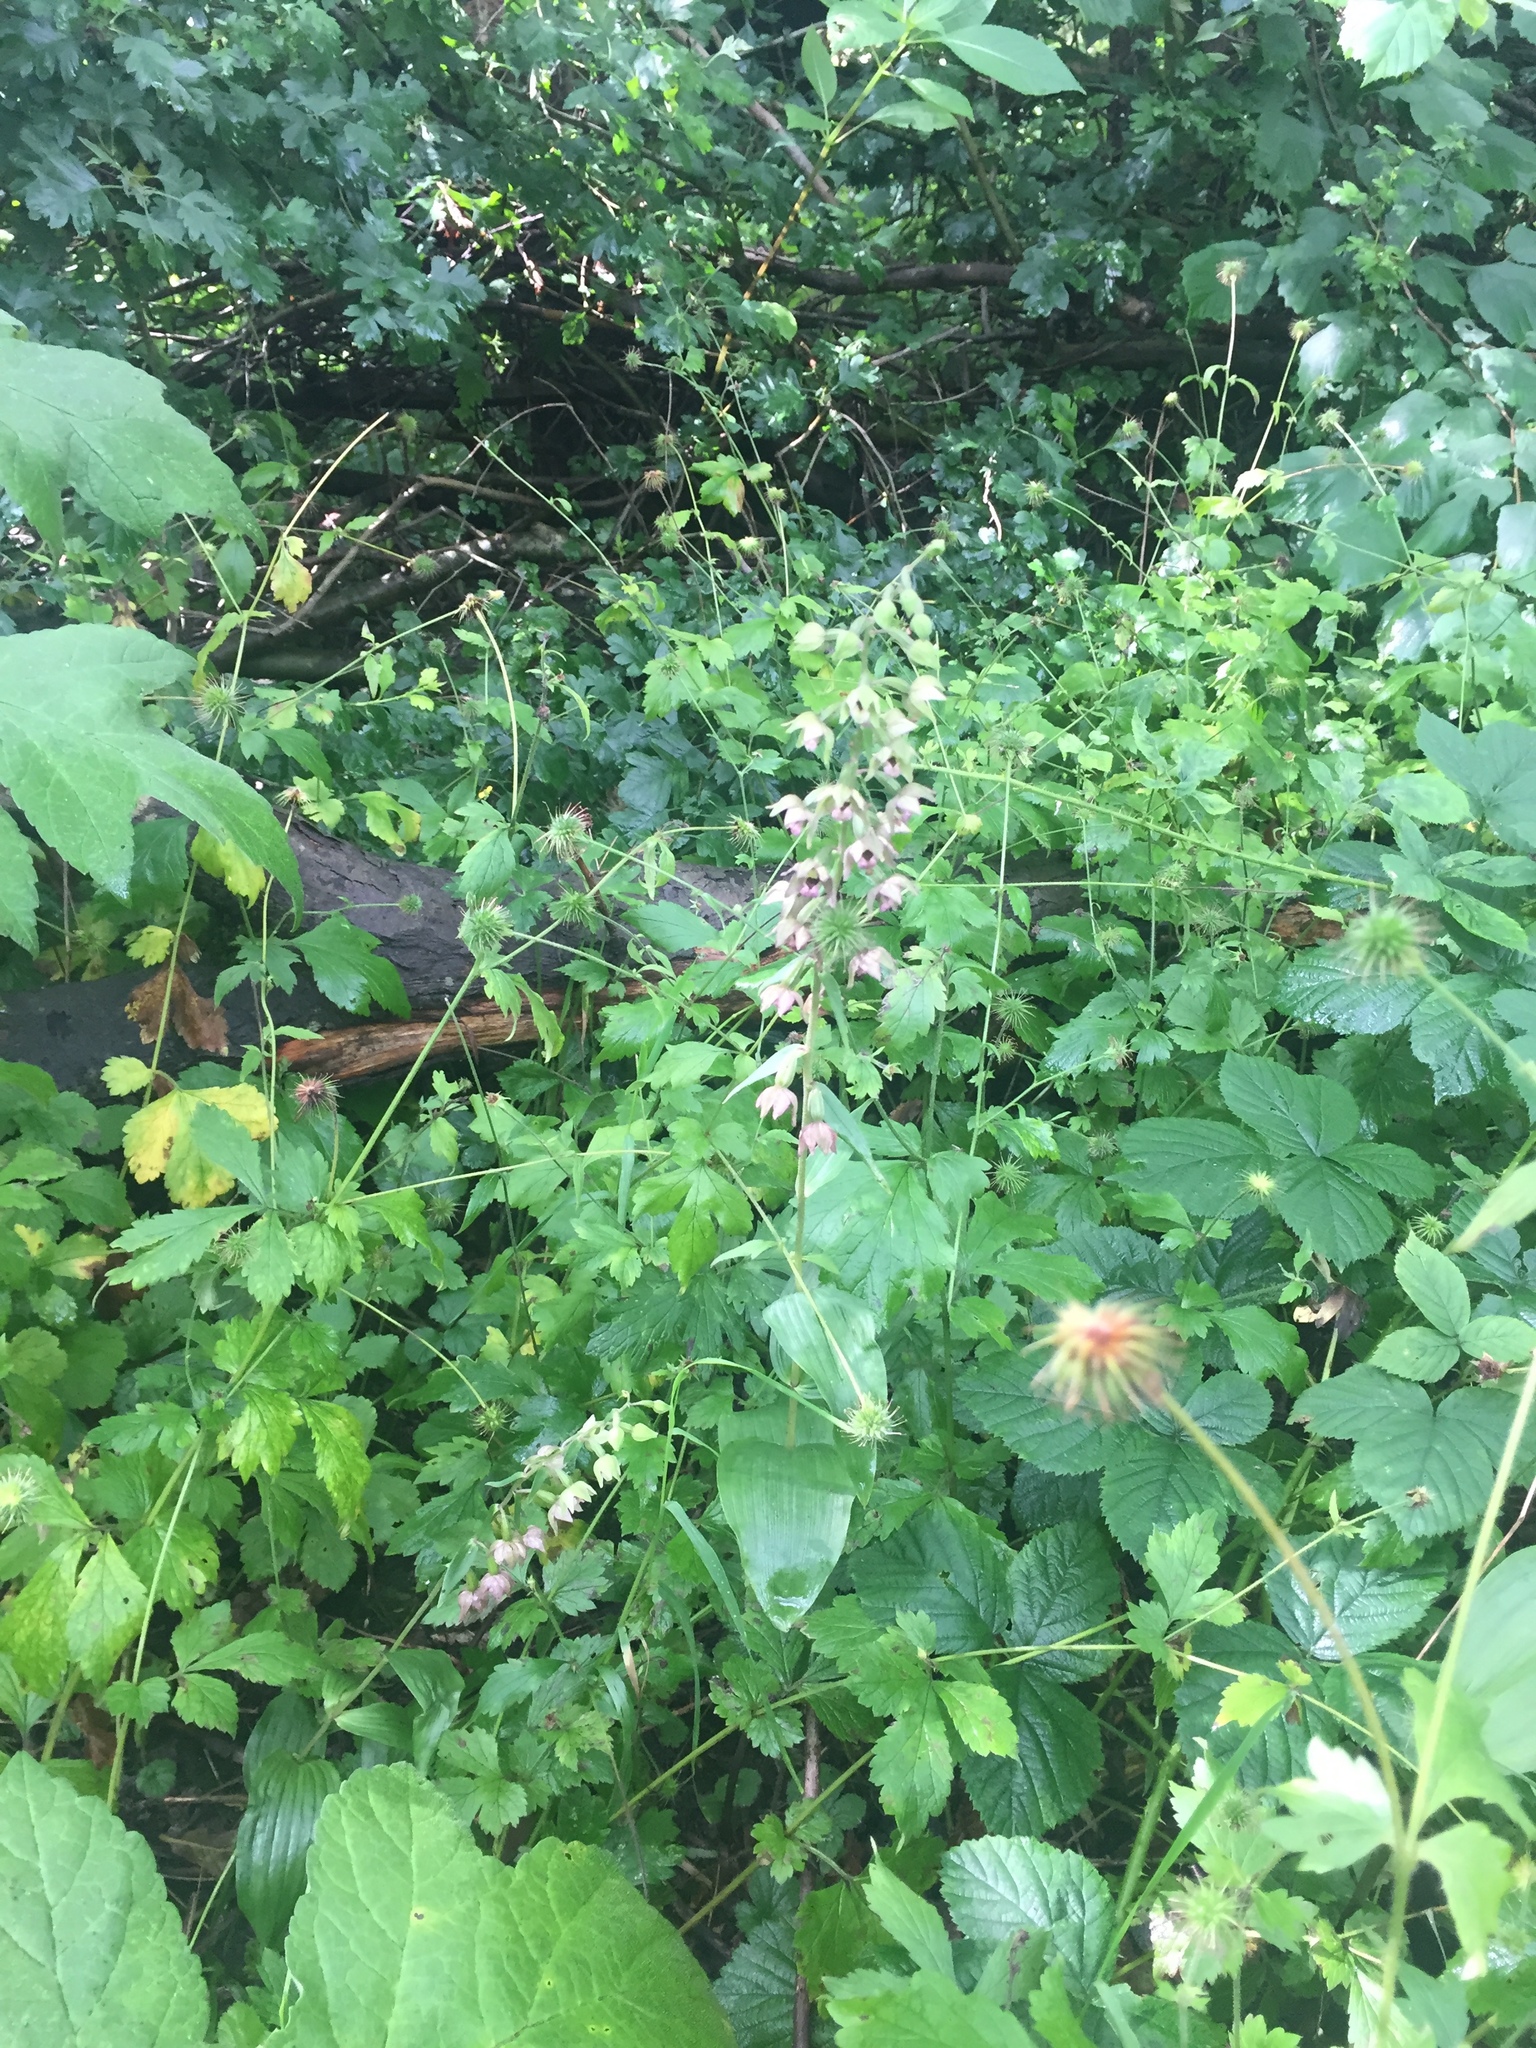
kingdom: Plantae
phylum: Tracheophyta
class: Liliopsida
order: Asparagales
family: Orchidaceae
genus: Epipactis
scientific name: Epipactis helleborine
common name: Broad-leaved helleborine
